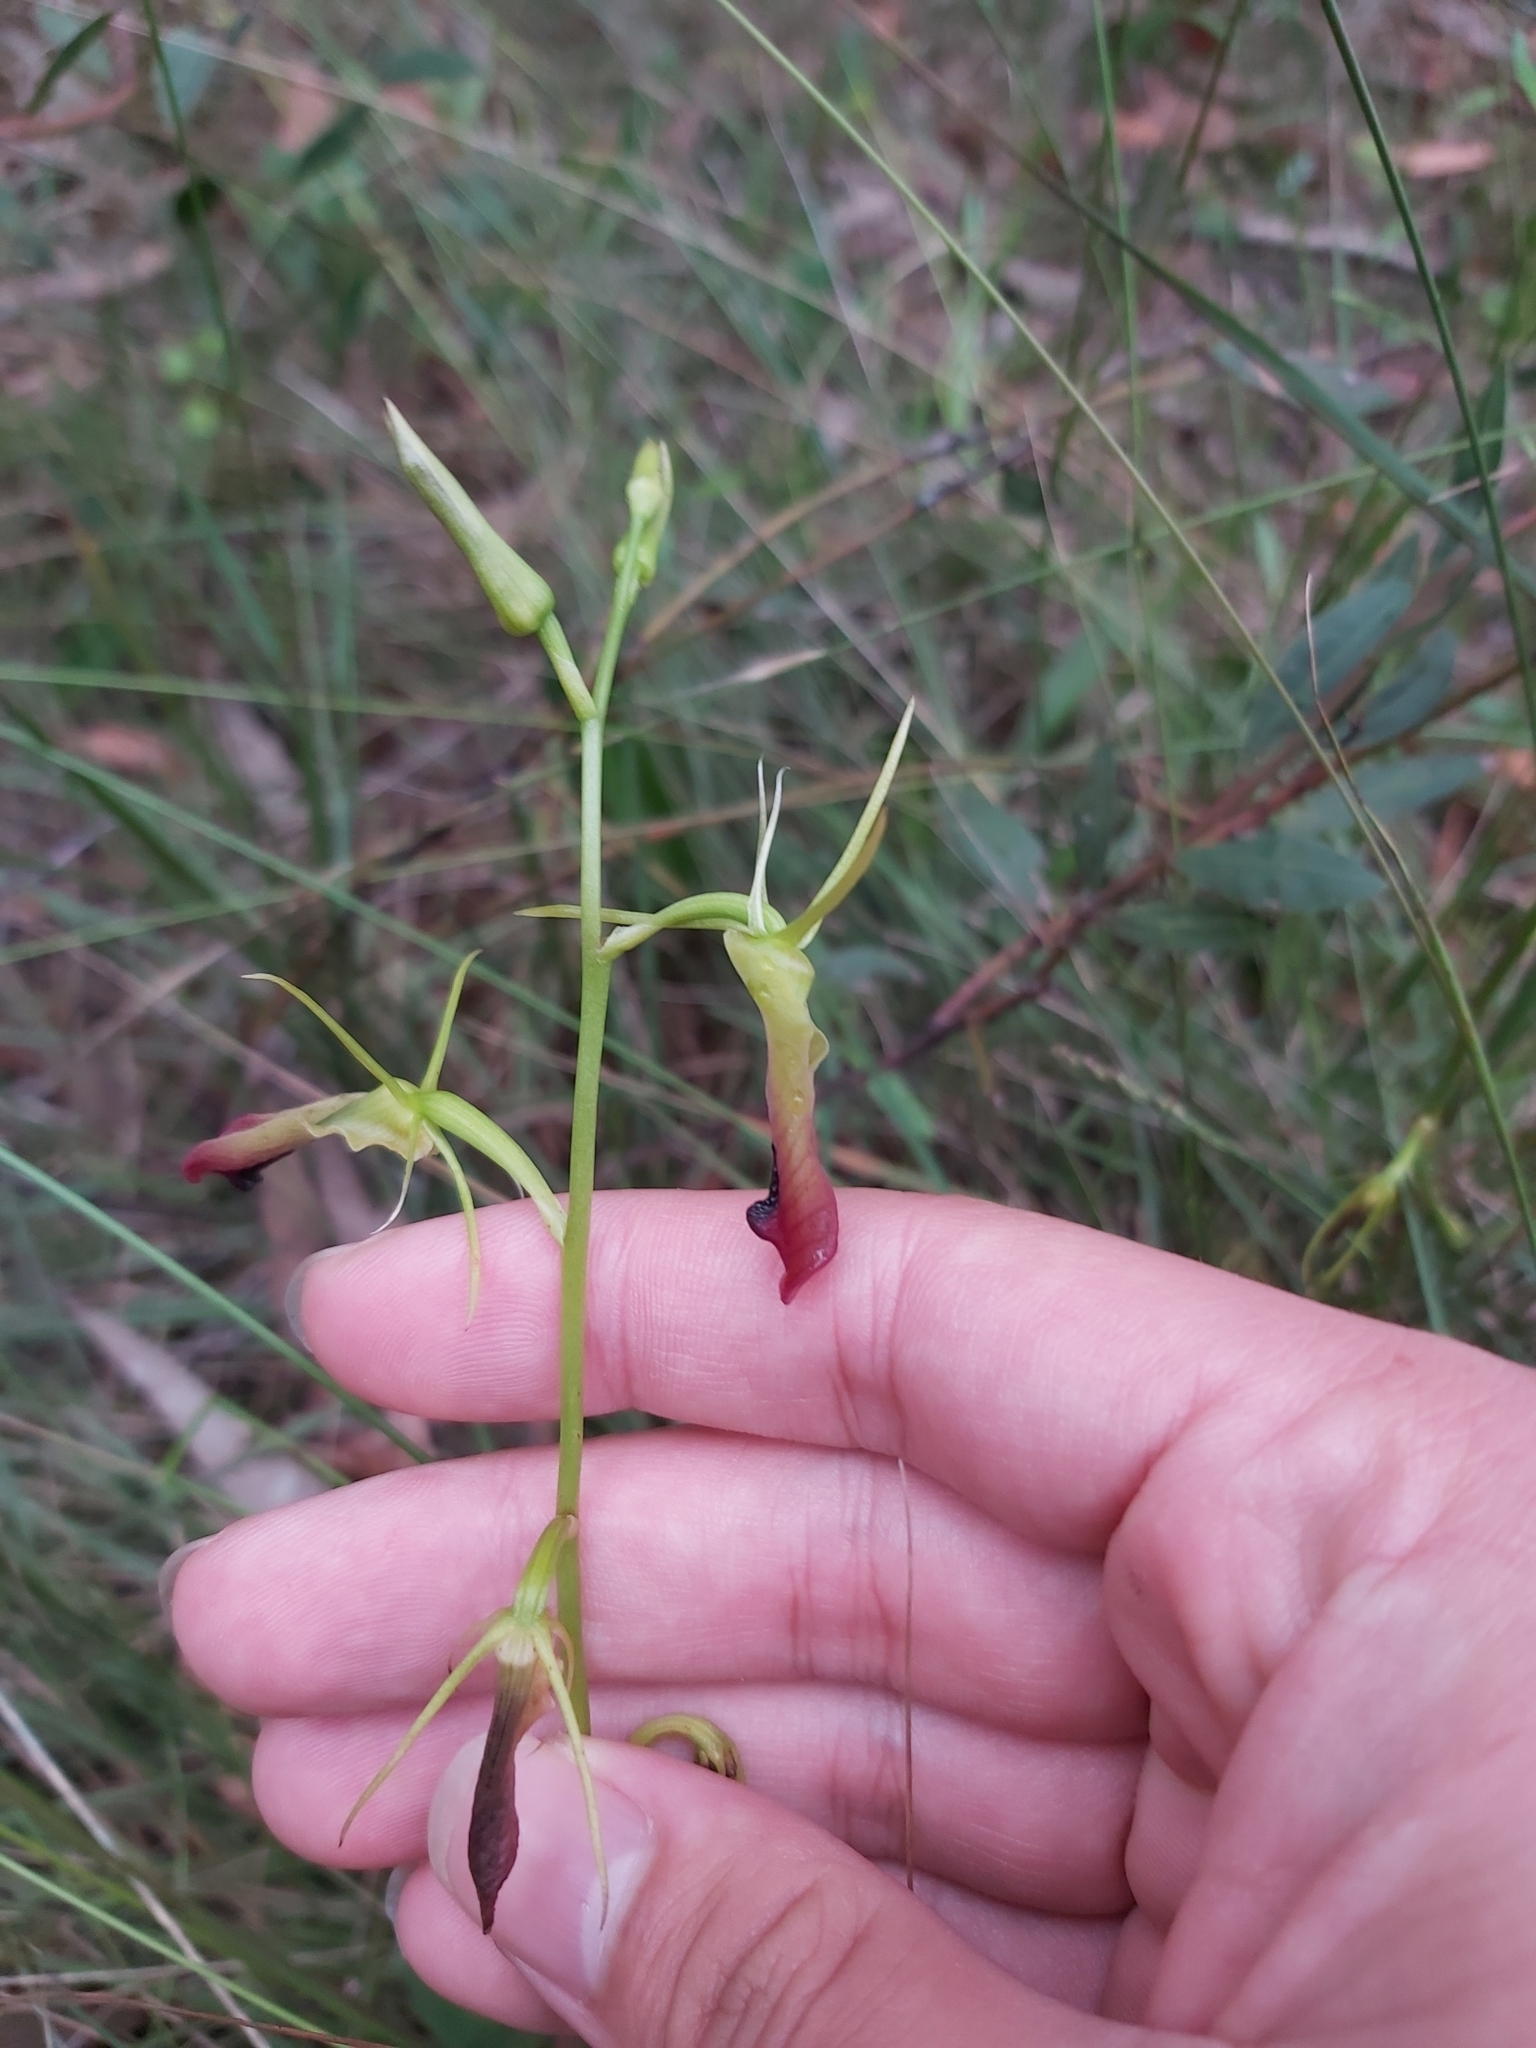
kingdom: Plantae
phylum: Tracheophyta
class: Liliopsida
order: Asparagales
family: Orchidaceae
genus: Cryptostylis
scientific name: Cryptostylis subulata
